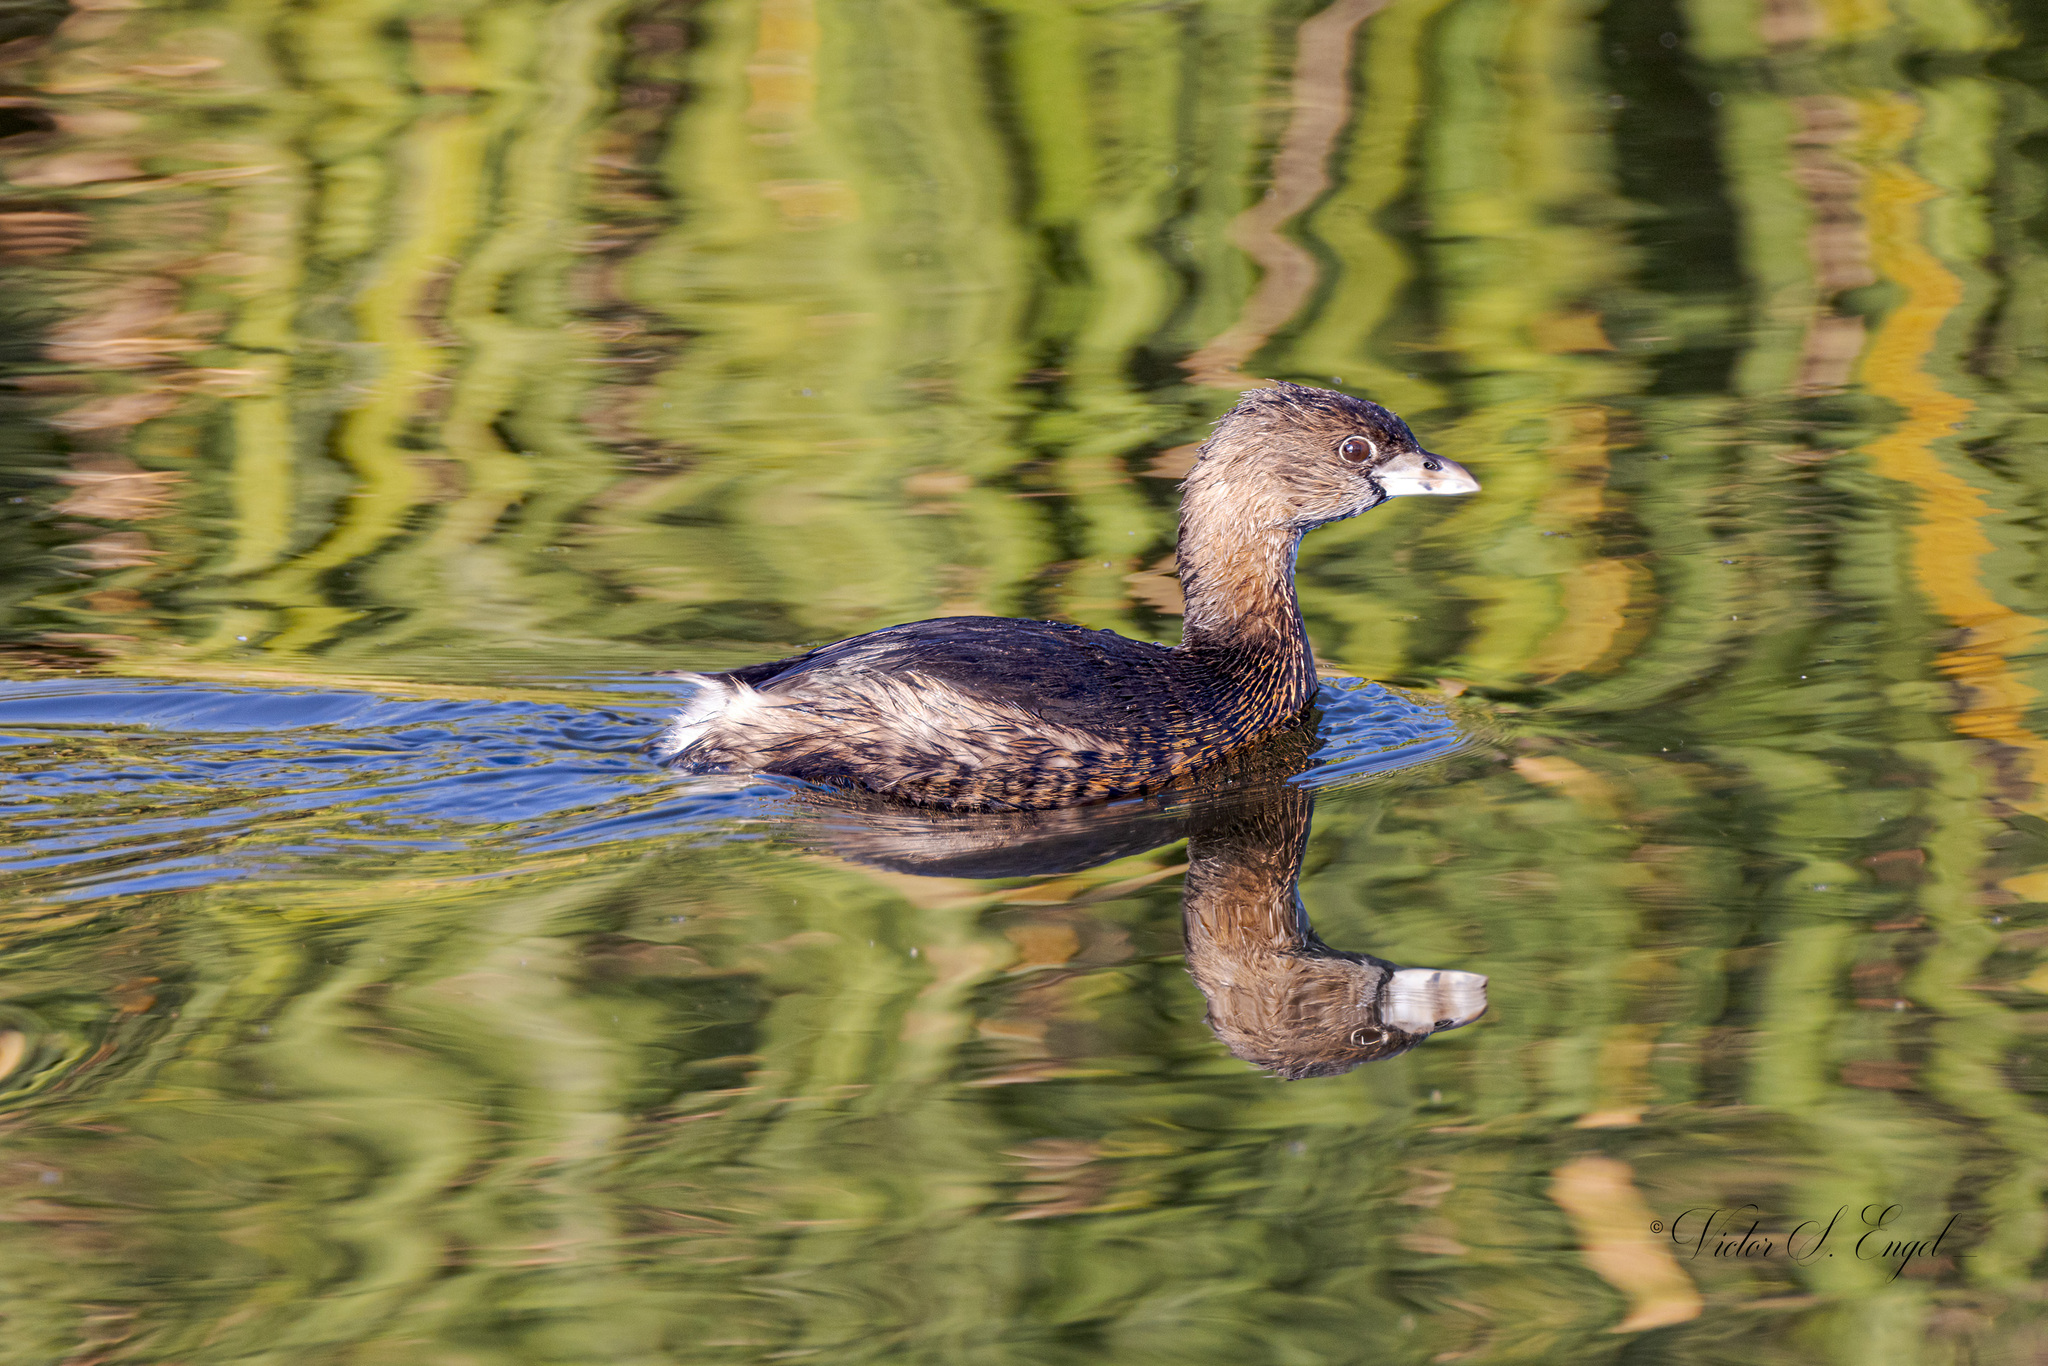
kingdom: Animalia
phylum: Chordata
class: Aves
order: Podicipediformes
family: Podicipedidae
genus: Podilymbus
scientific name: Podilymbus podiceps
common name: Pied-billed grebe
